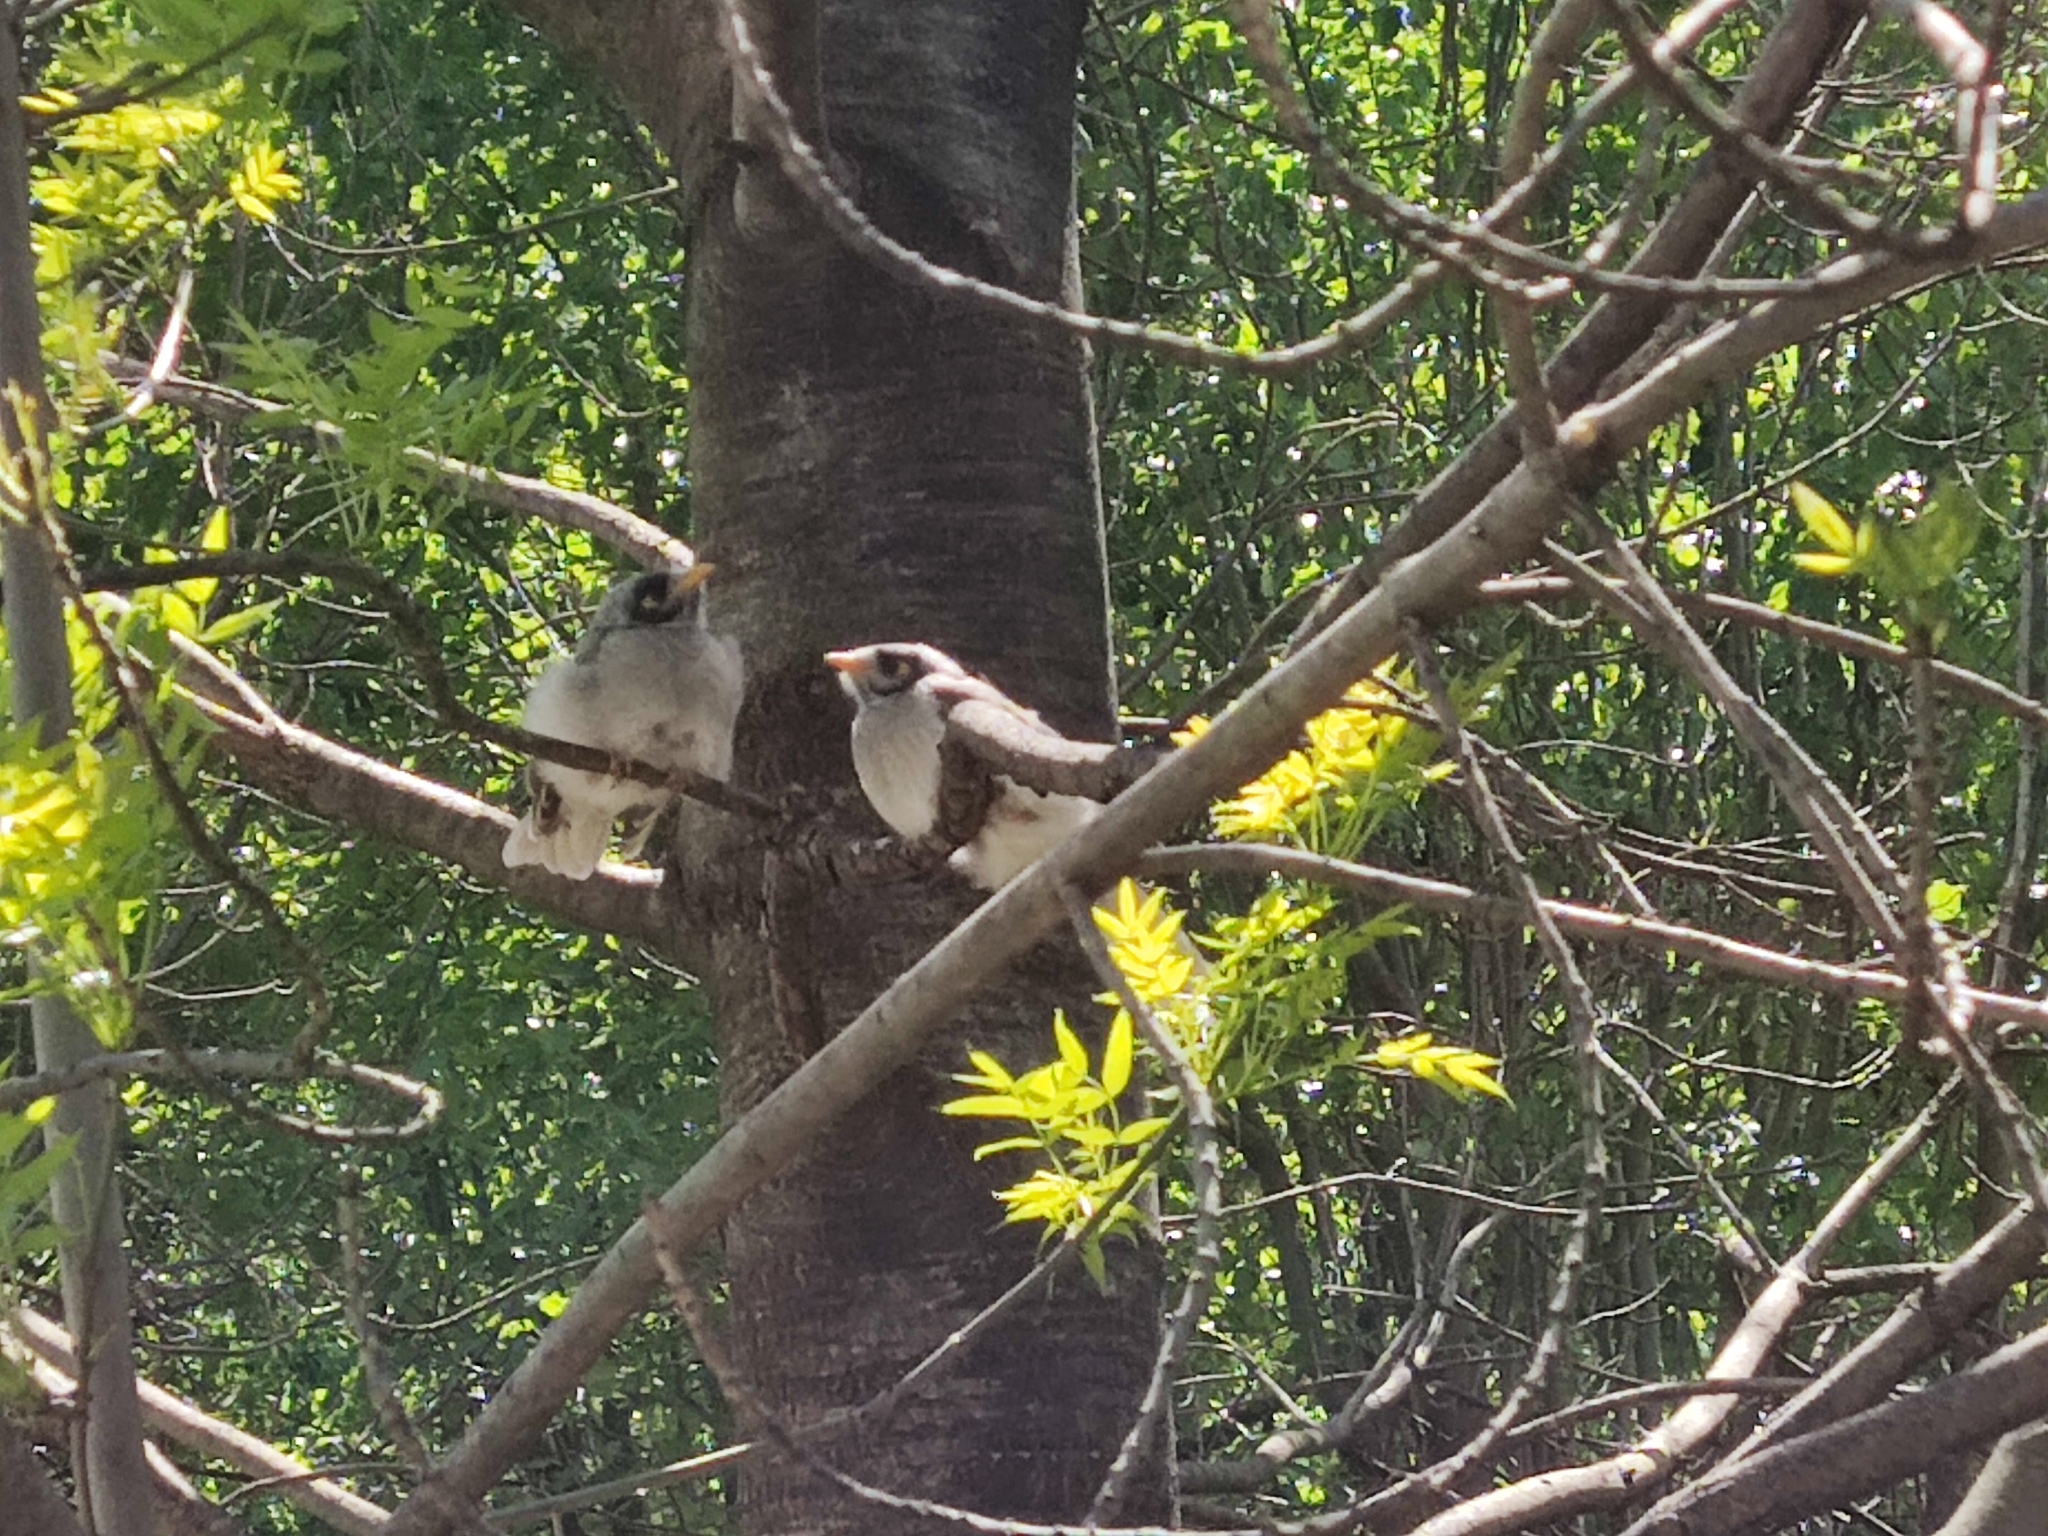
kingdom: Animalia
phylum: Chordata
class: Aves
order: Passeriformes
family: Meliphagidae
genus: Manorina
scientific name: Manorina melanocephala
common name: Noisy miner
